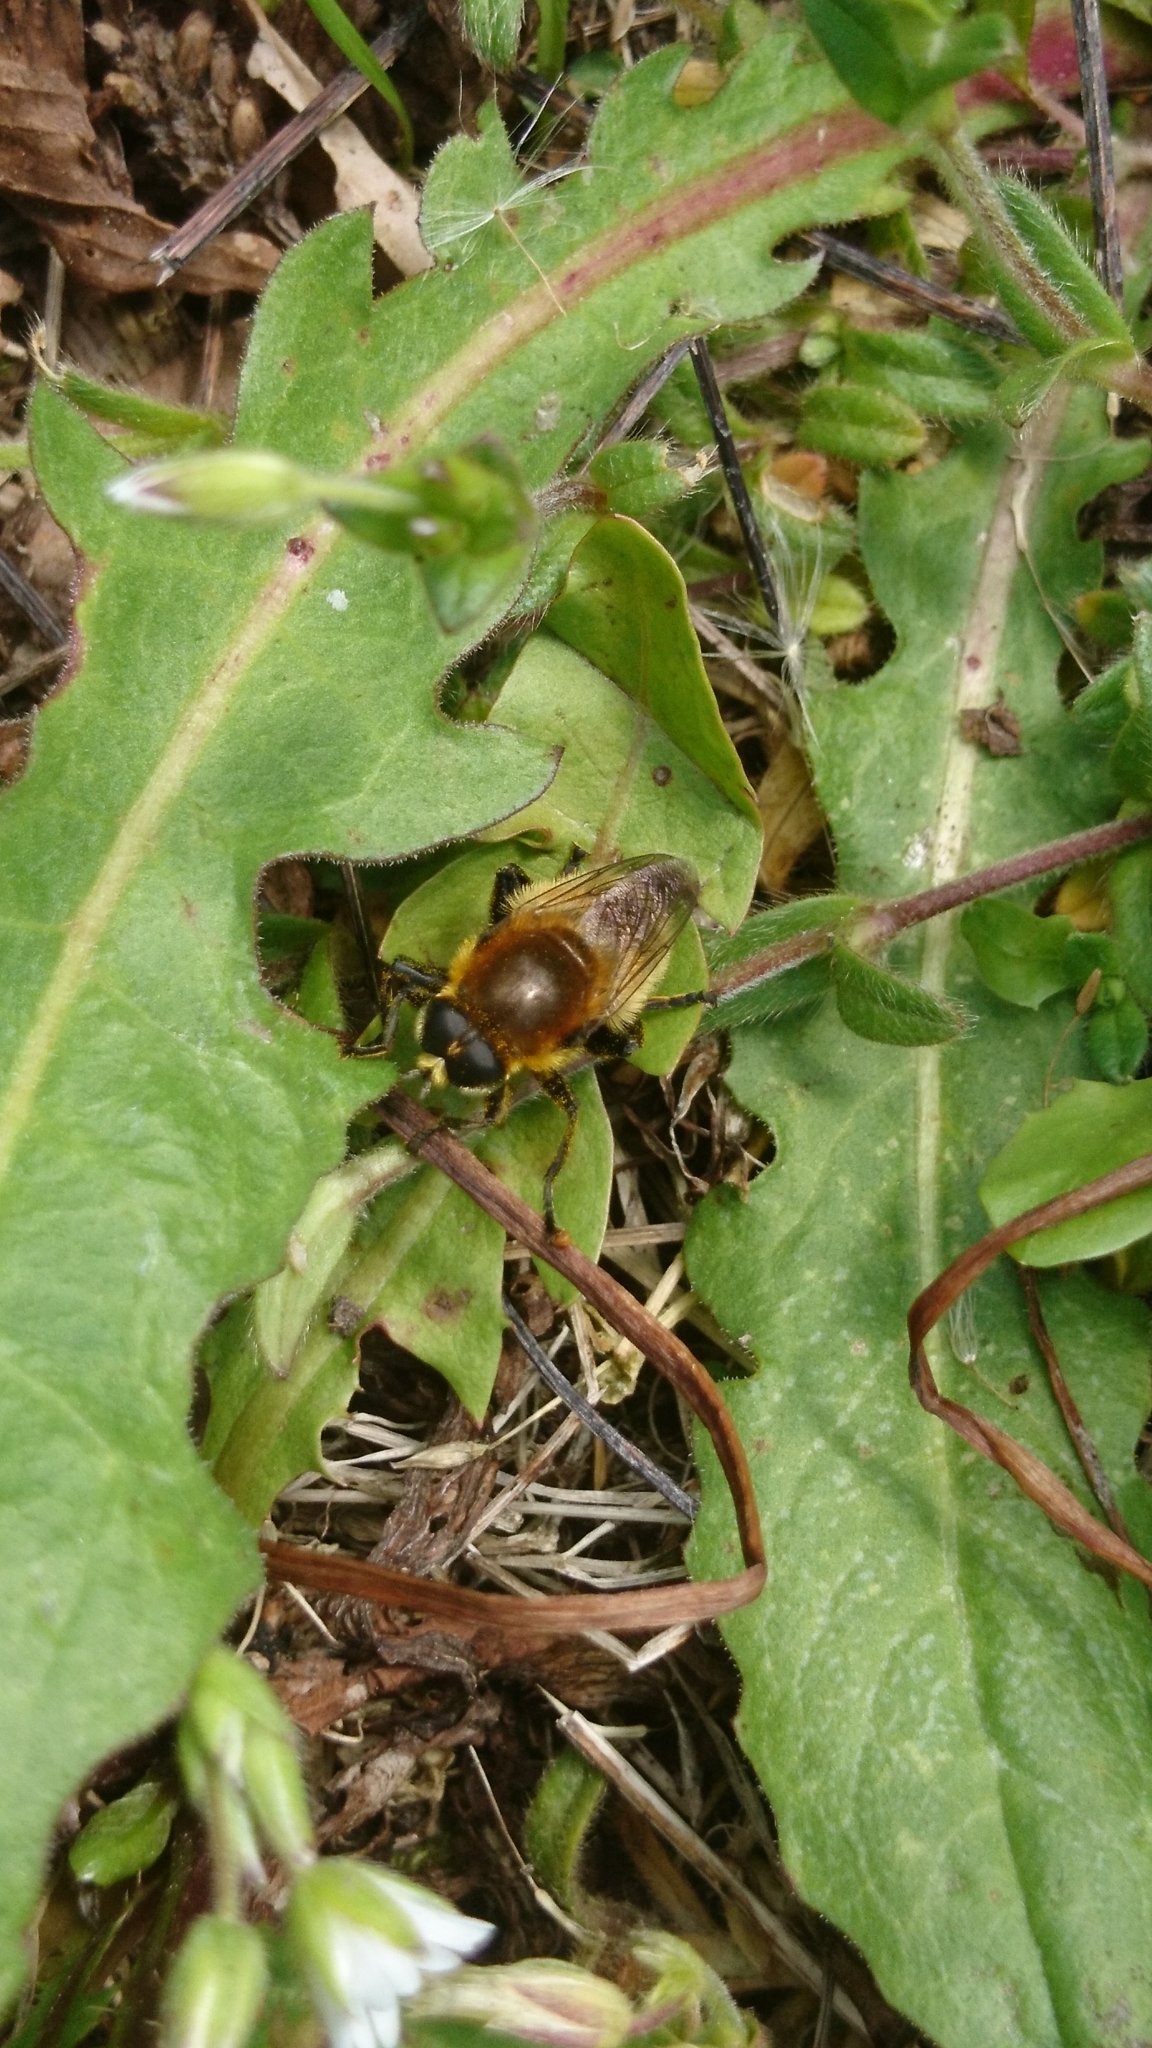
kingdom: Animalia
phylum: Arthropoda
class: Insecta
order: Diptera
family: Syrphidae
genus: Merodon
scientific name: Merodon equestris
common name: Greater bulb-fly
